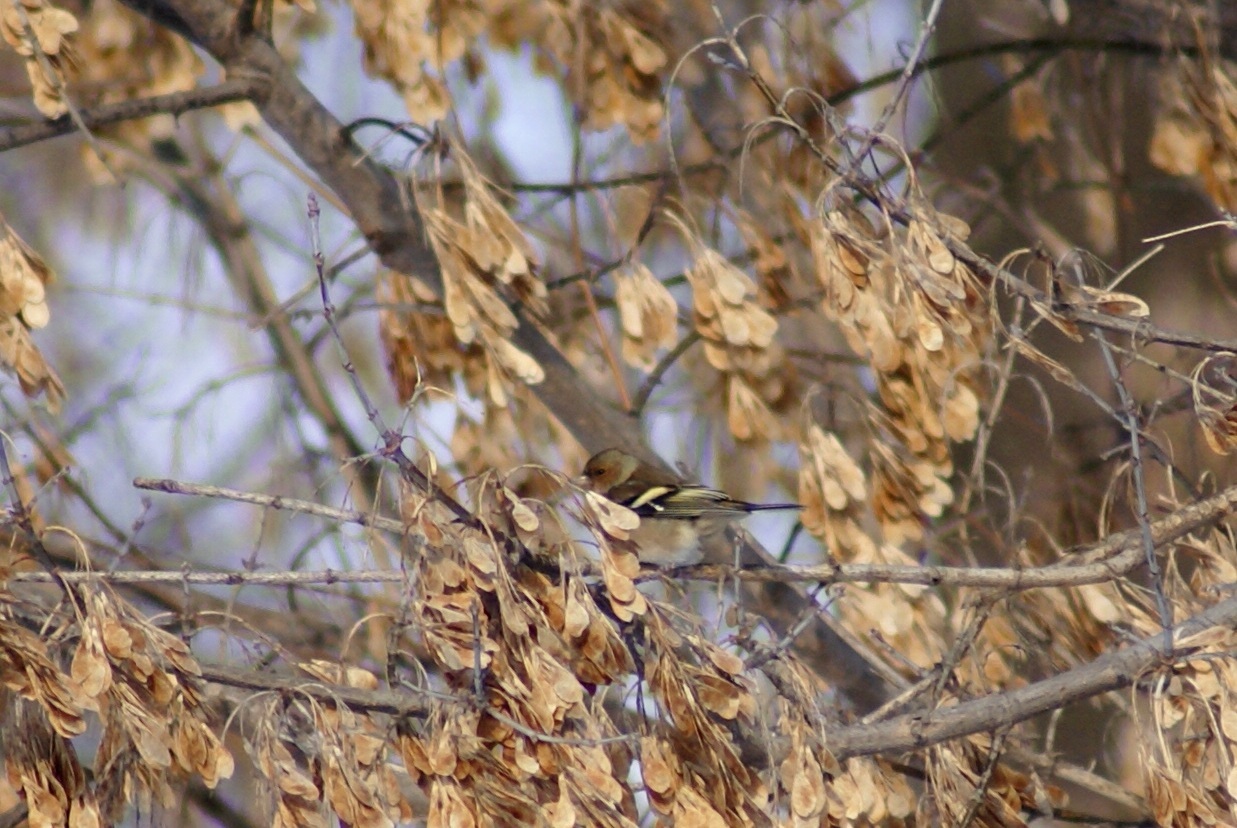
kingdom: Animalia
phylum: Chordata
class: Aves
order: Passeriformes
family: Fringillidae
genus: Fringilla
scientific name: Fringilla coelebs
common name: Common chaffinch
